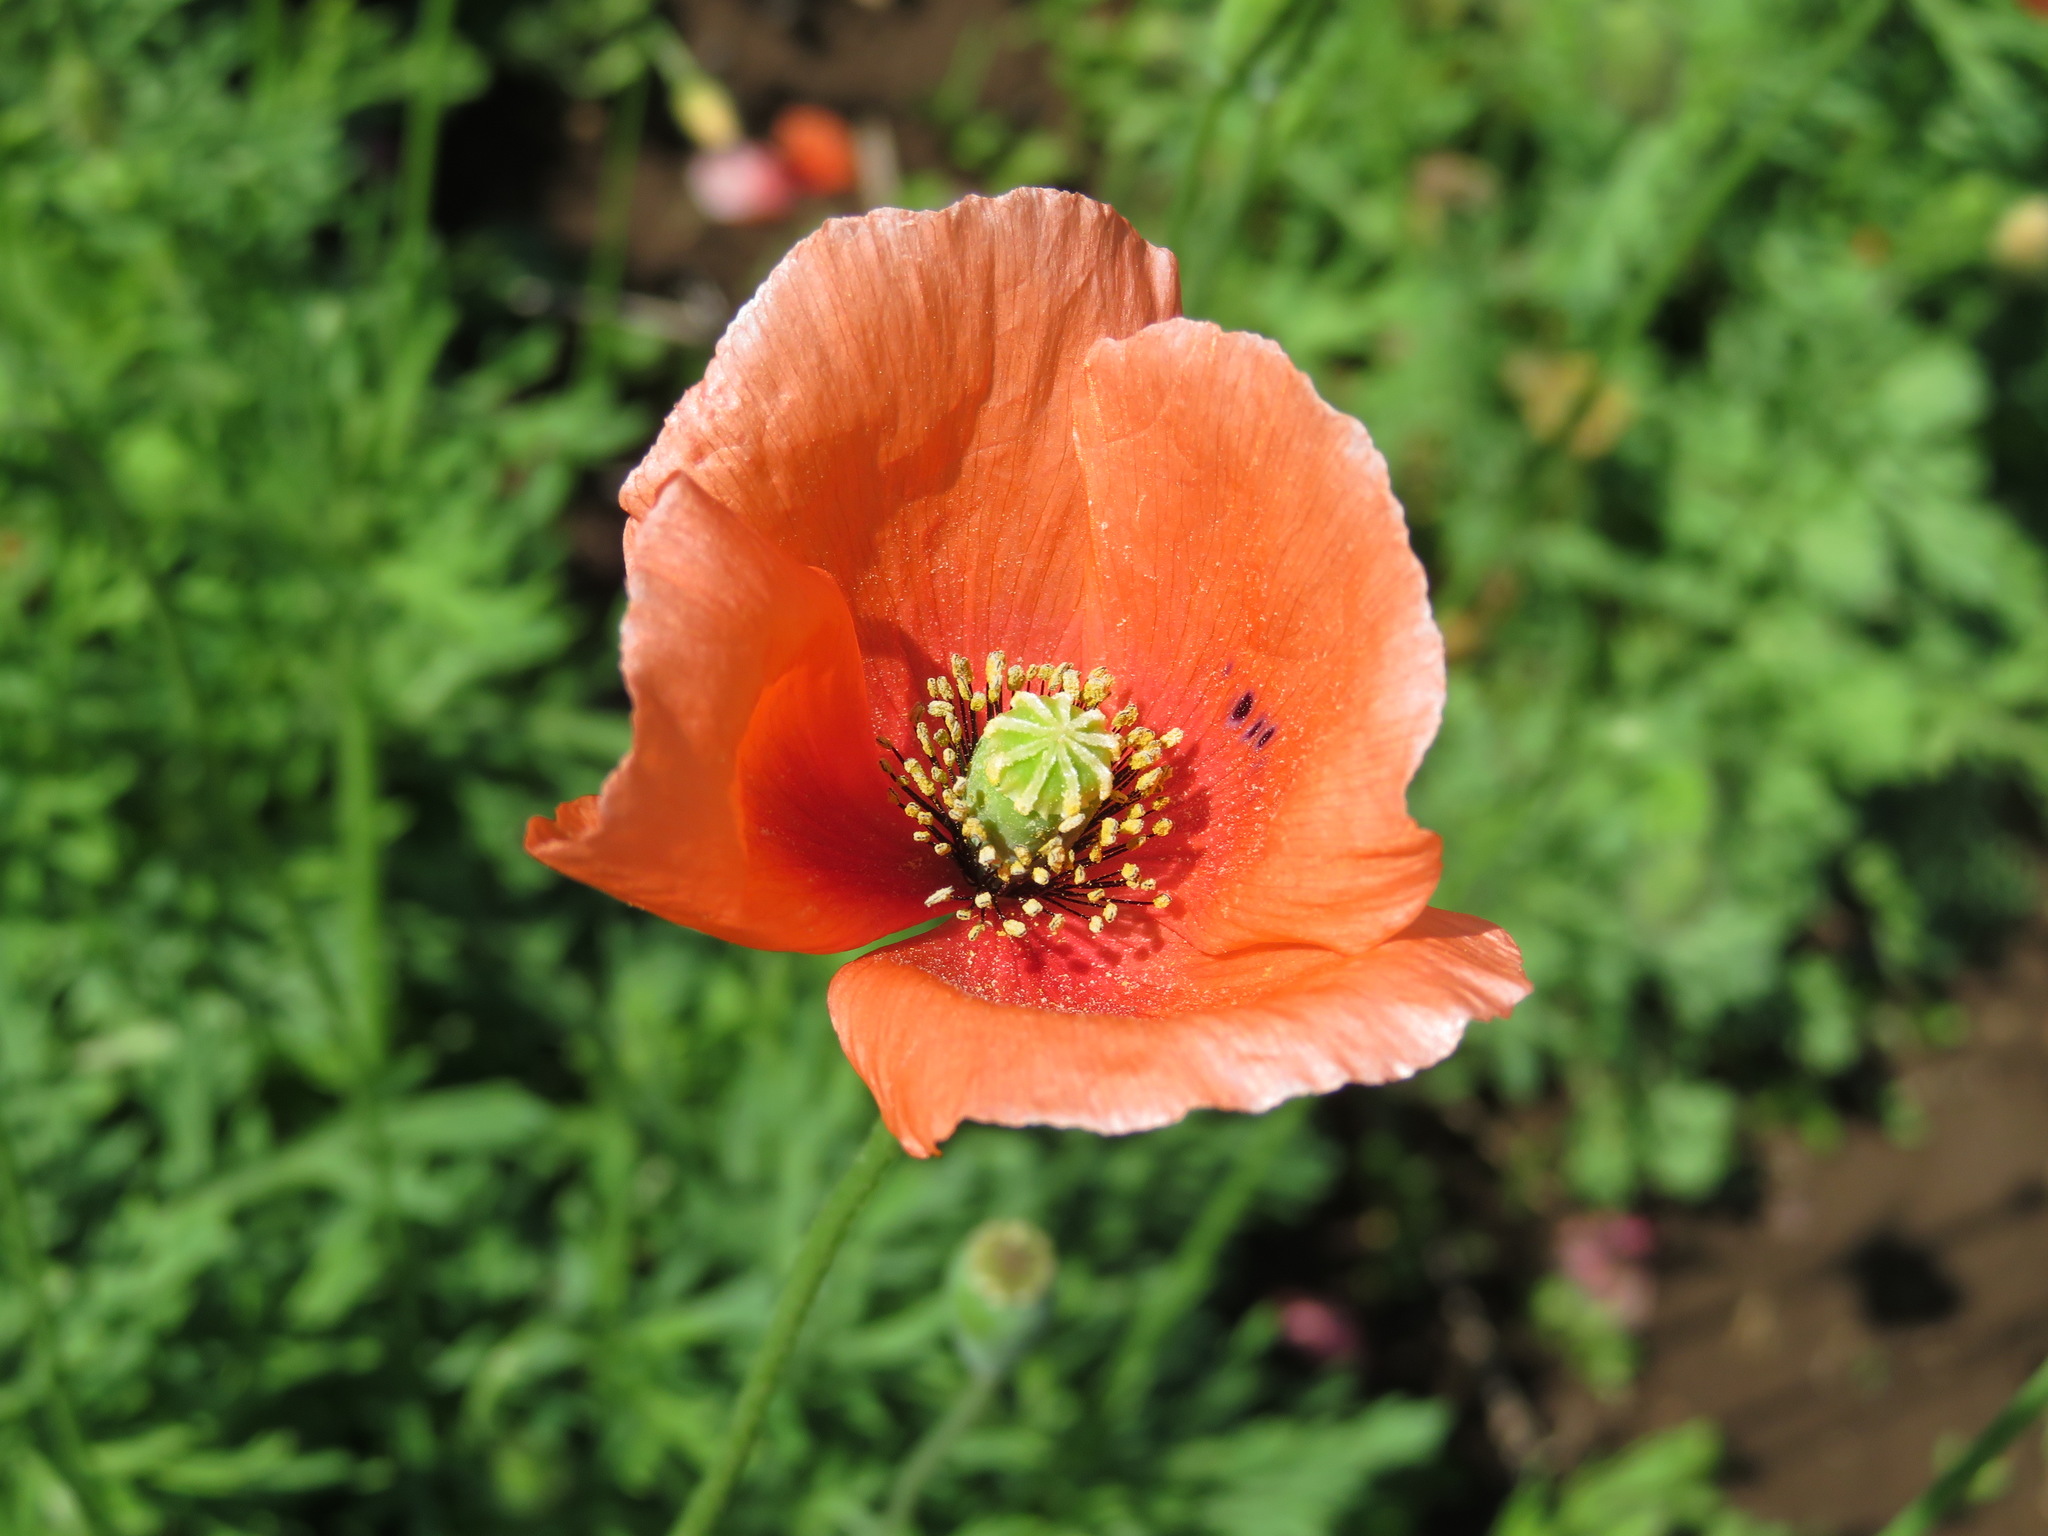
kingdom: Plantae
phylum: Tracheophyta
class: Magnoliopsida
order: Ranunculales
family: Papaveraceae
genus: Papaver
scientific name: Papaver dubium
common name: Long-headed poppy
